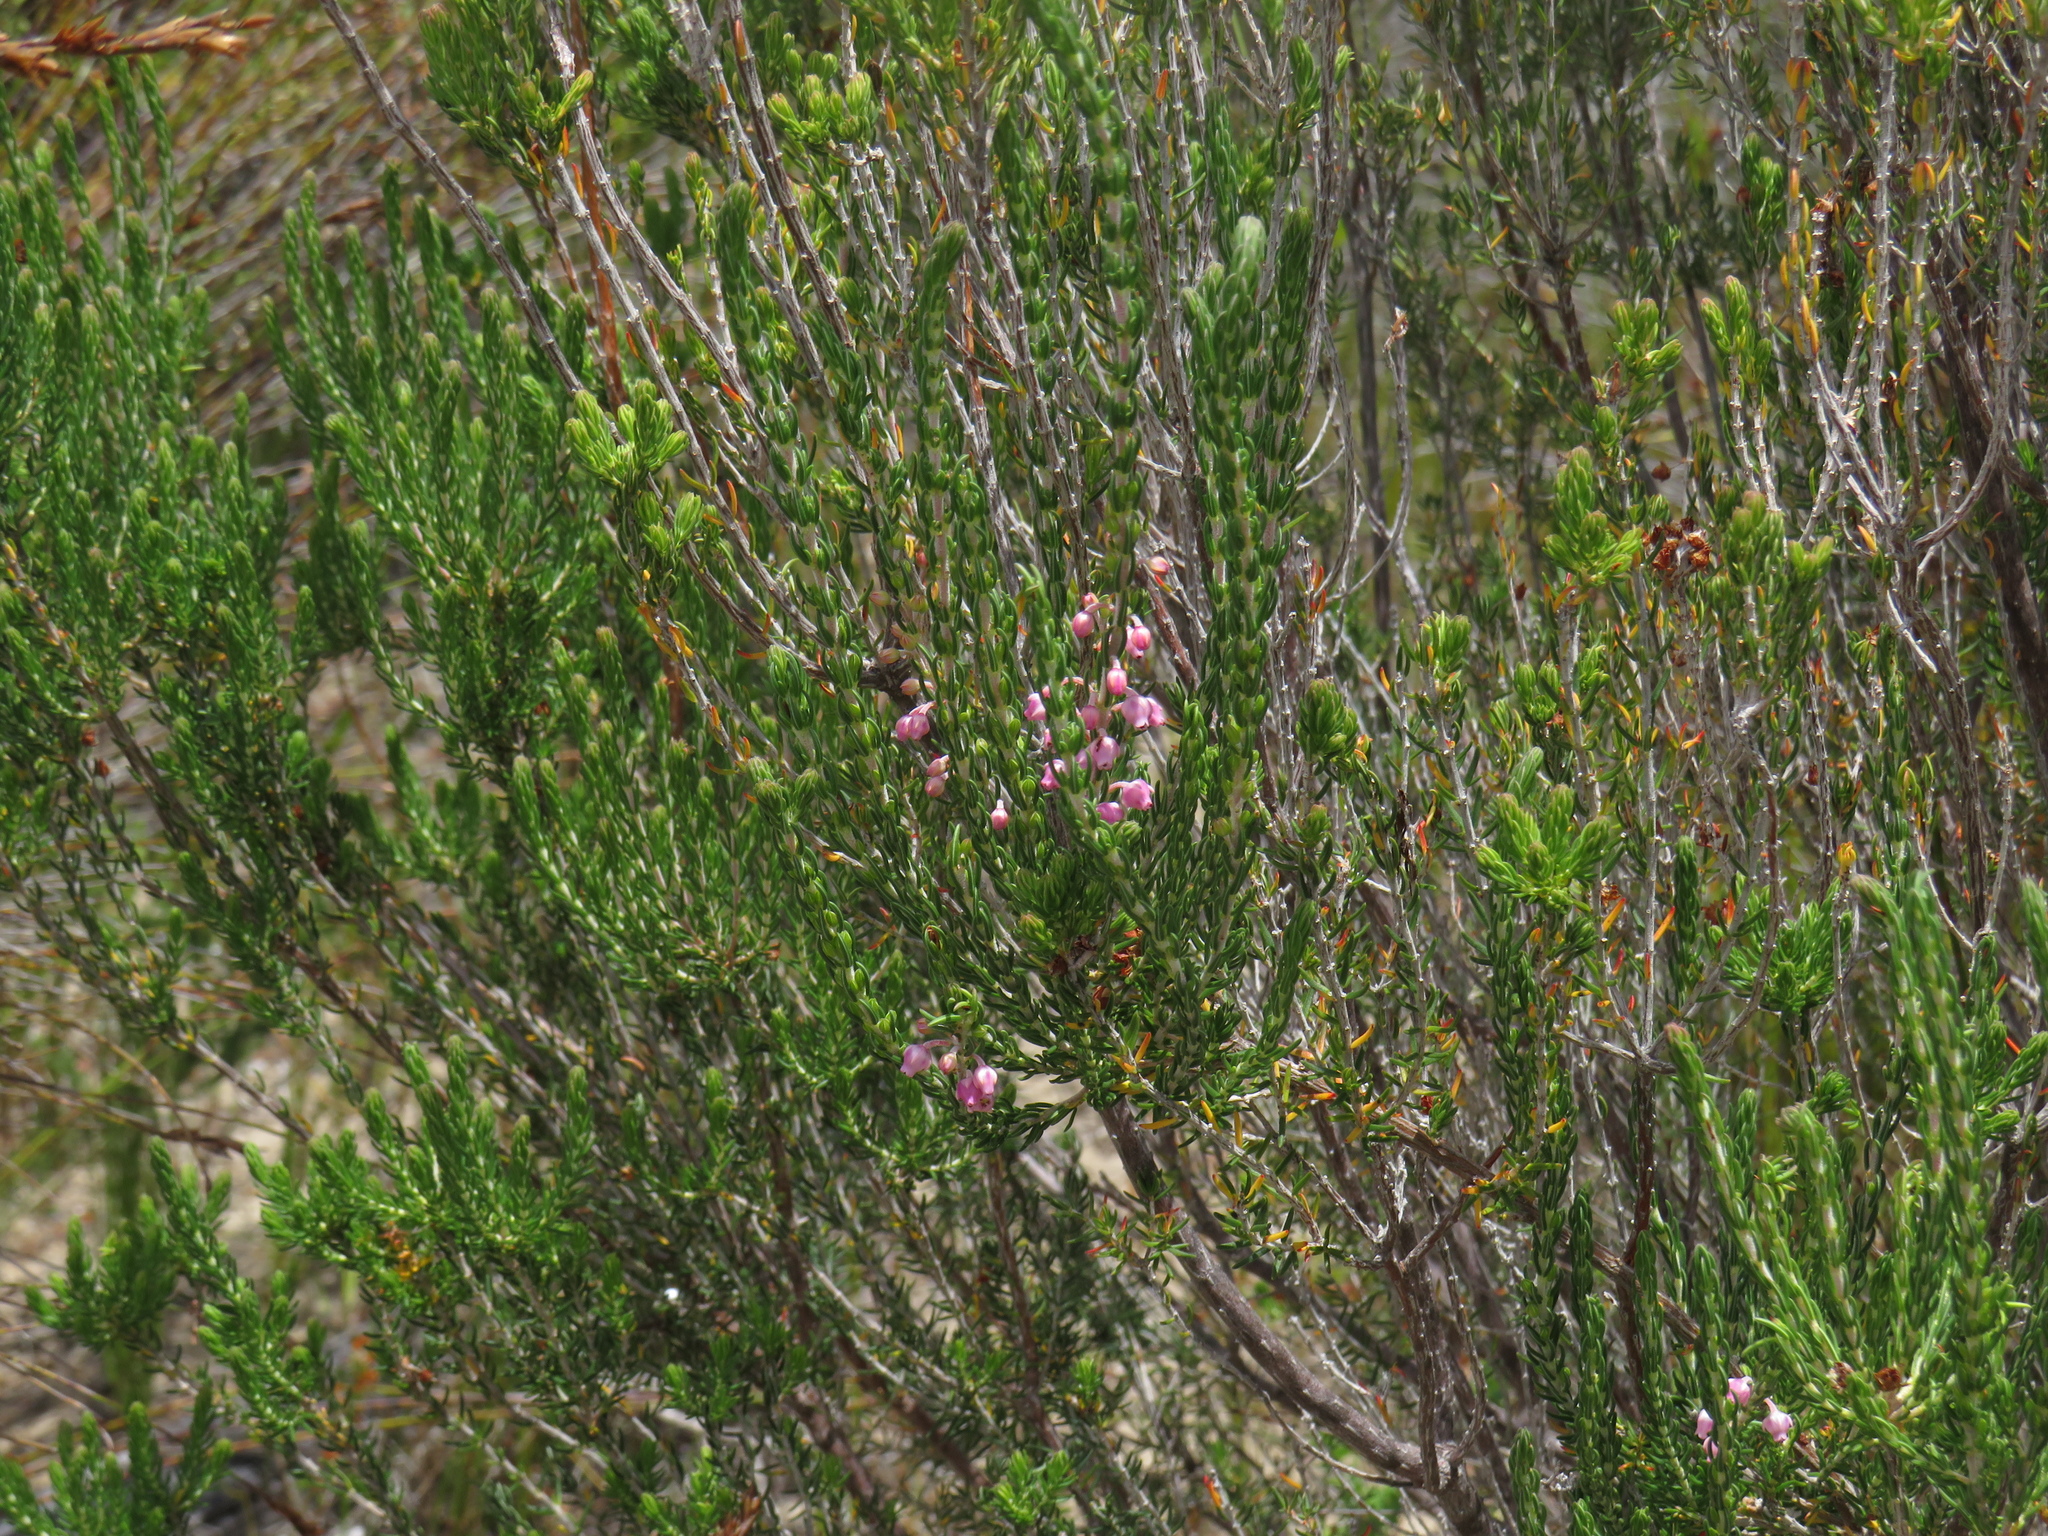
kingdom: Plantae
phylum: Tracheophyta
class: Magnoliopsida
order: Ericales
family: Ericaceae
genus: Erica
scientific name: Erica irregularis
